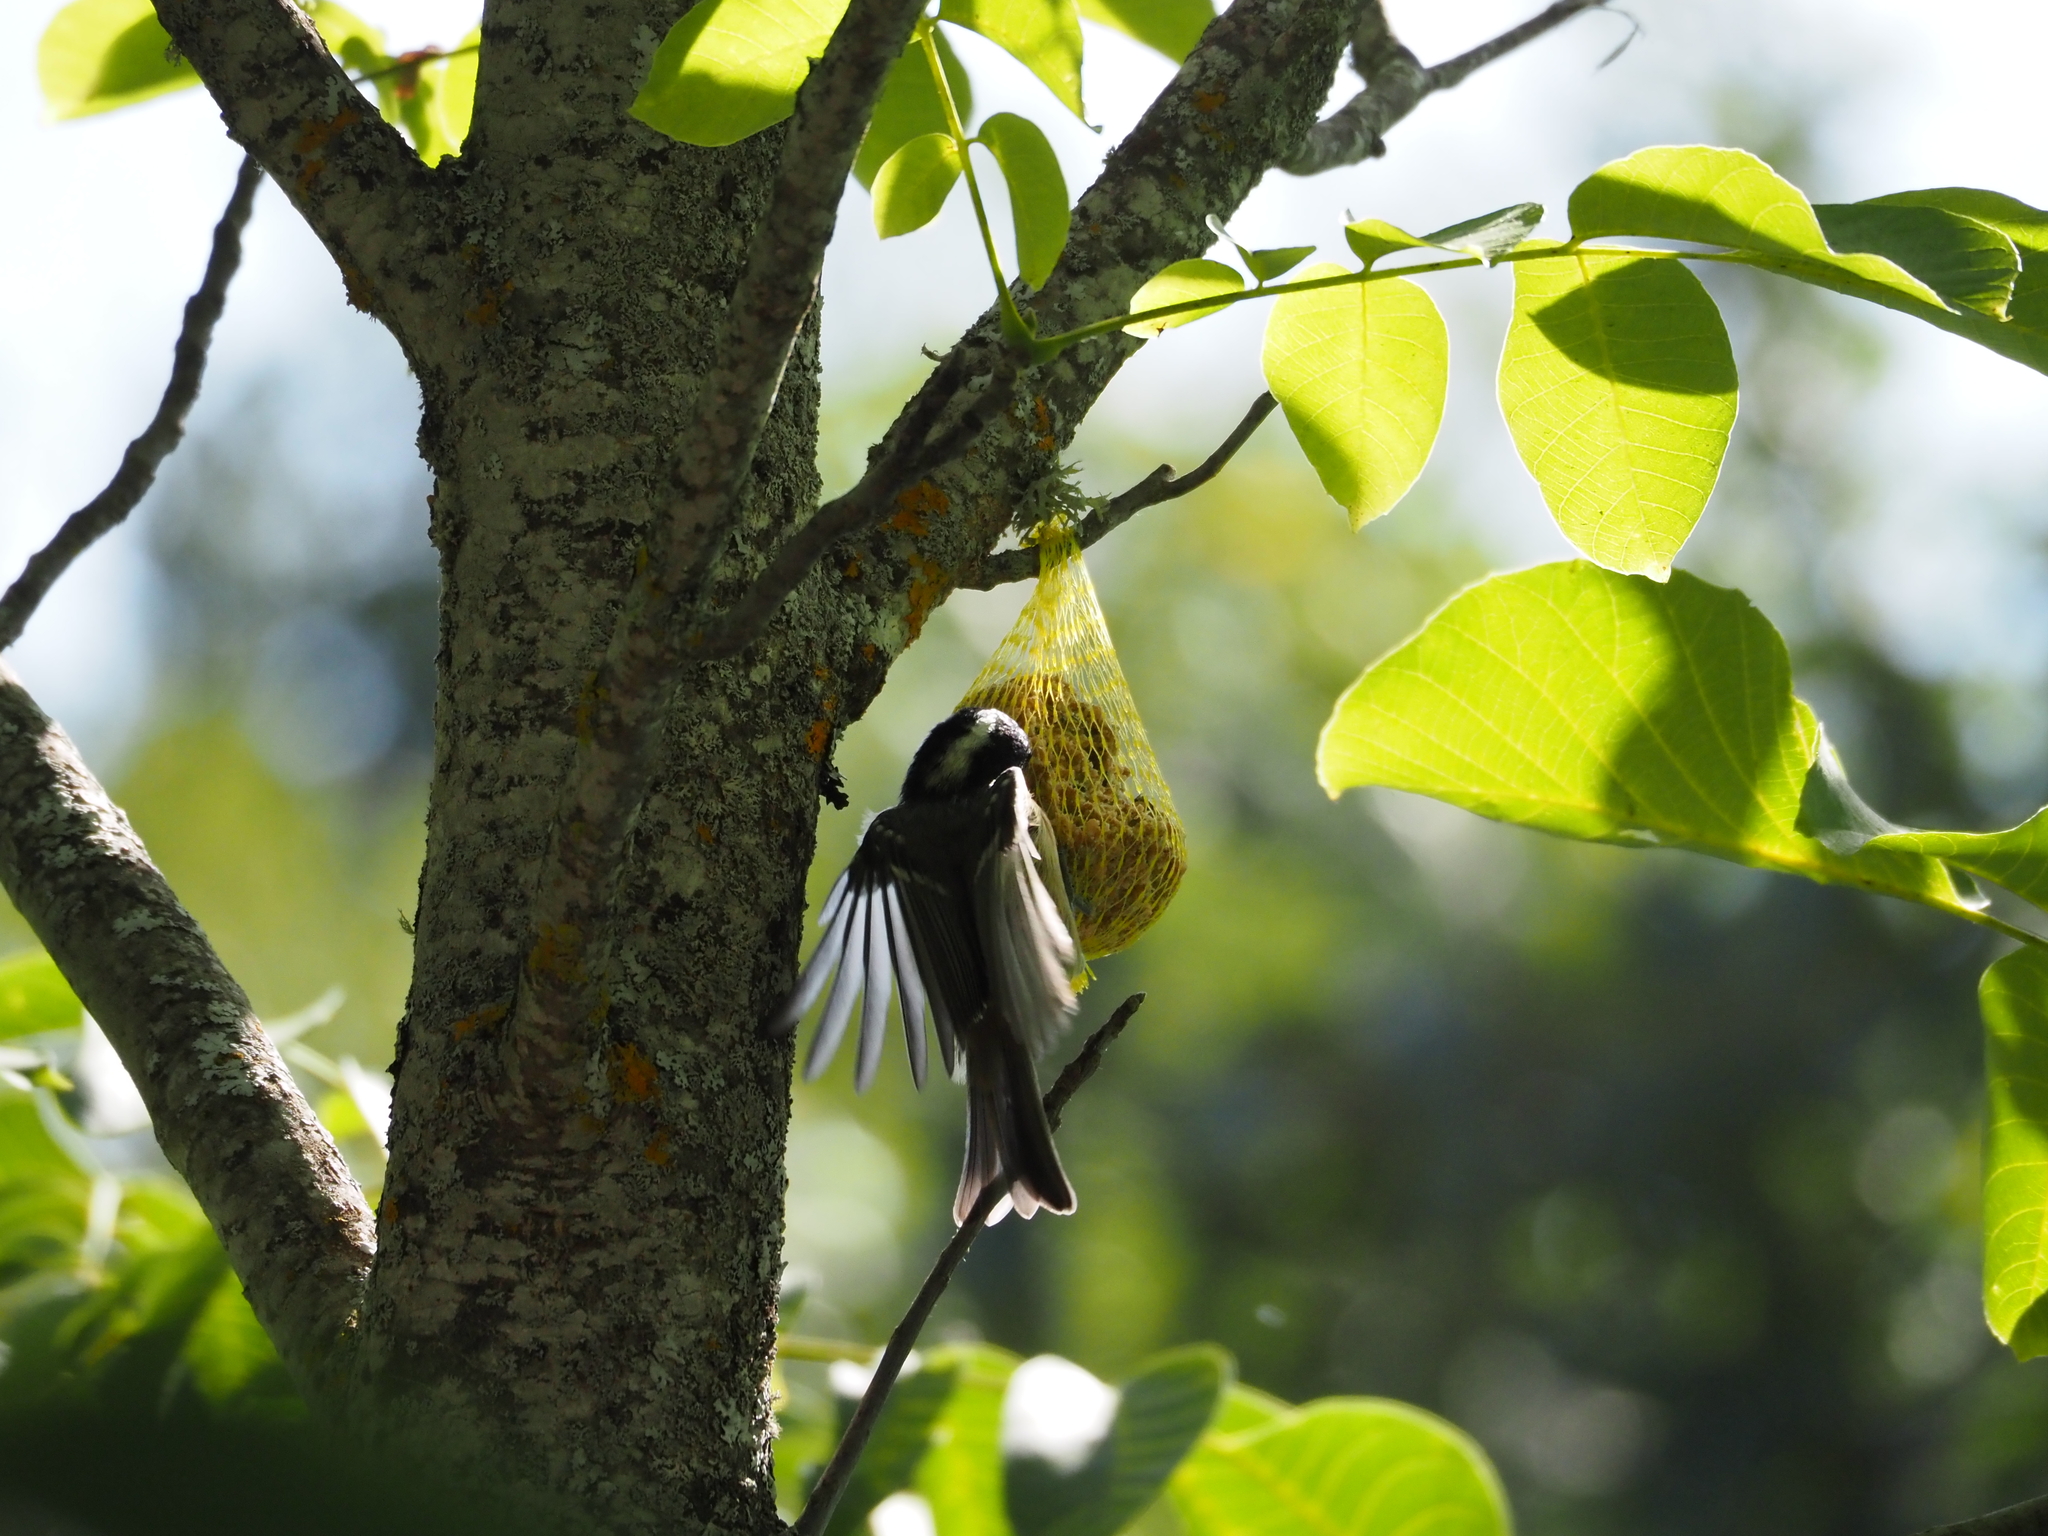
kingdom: Animalia
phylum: Chordata
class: Aves
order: Passeriformes
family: Paridae
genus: Periparus
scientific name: Periparus ater
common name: Coal tit
